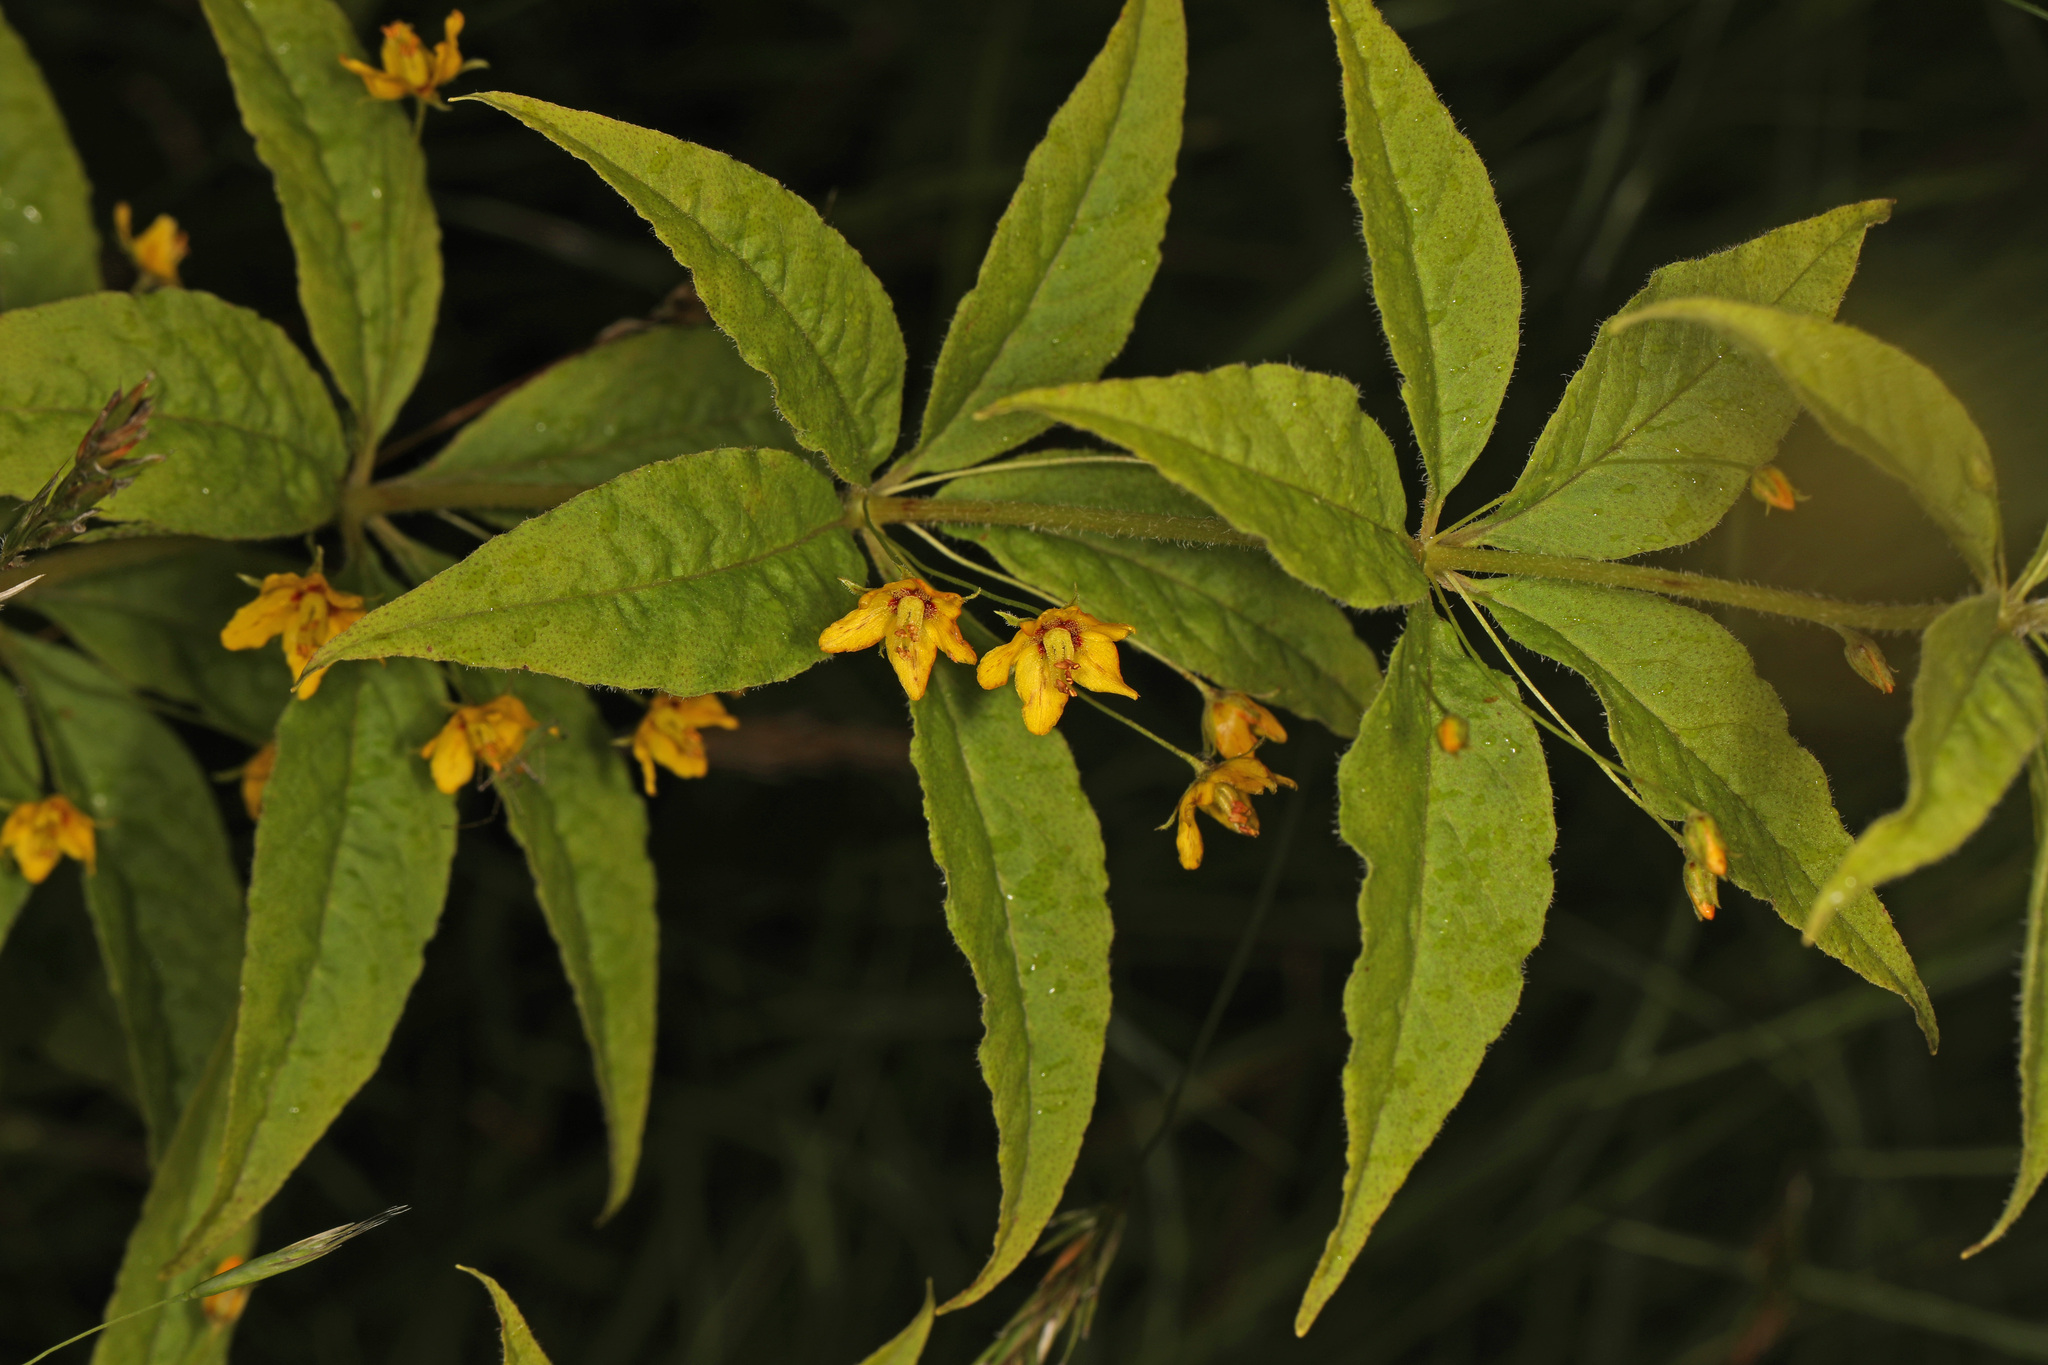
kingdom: Plantae
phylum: Tracheophyta
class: Magnoliopsida
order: Ericales
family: Primulaceae
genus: Lysimachia
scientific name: Lysimachia quadrifolia
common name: Whorled loosestrife
